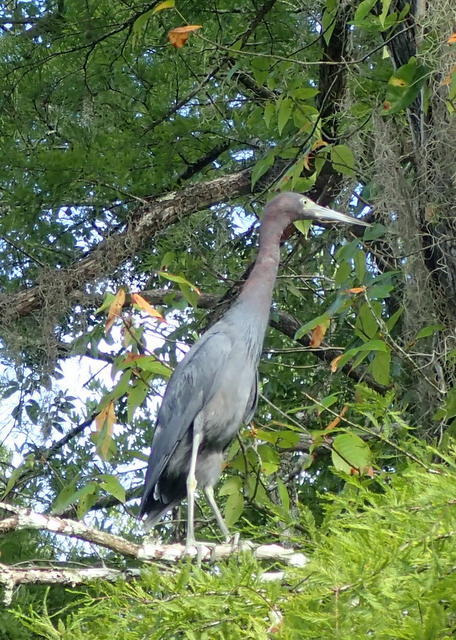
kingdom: Animalia
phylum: Chordata
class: Aves
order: Pelecaniformes
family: Ardeidae
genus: Egretta
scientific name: Egretta caerulea
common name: Little blue heron
